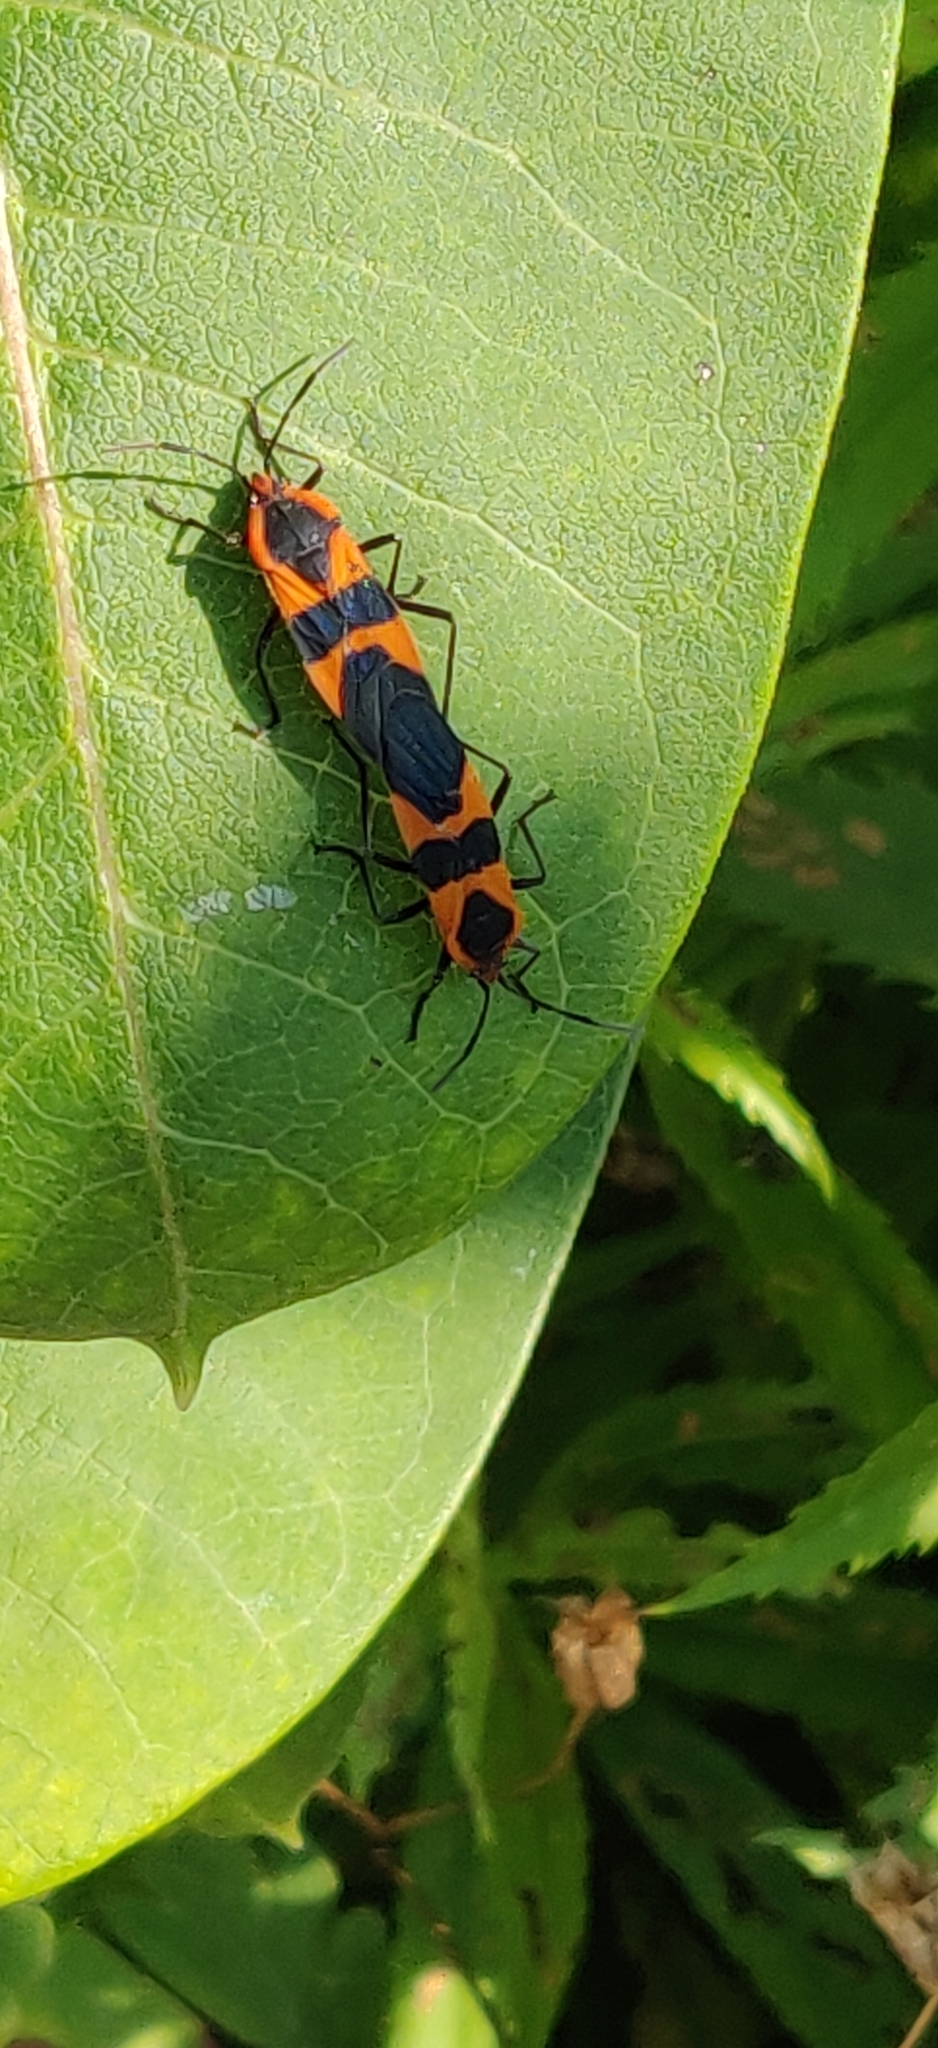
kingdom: Animalia
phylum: Arthropoda
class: Insecta
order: Hemiptera
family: Lygaeidae
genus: Oncopeltus
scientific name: Oncopeltus fasciatus
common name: Large milkweed bug
